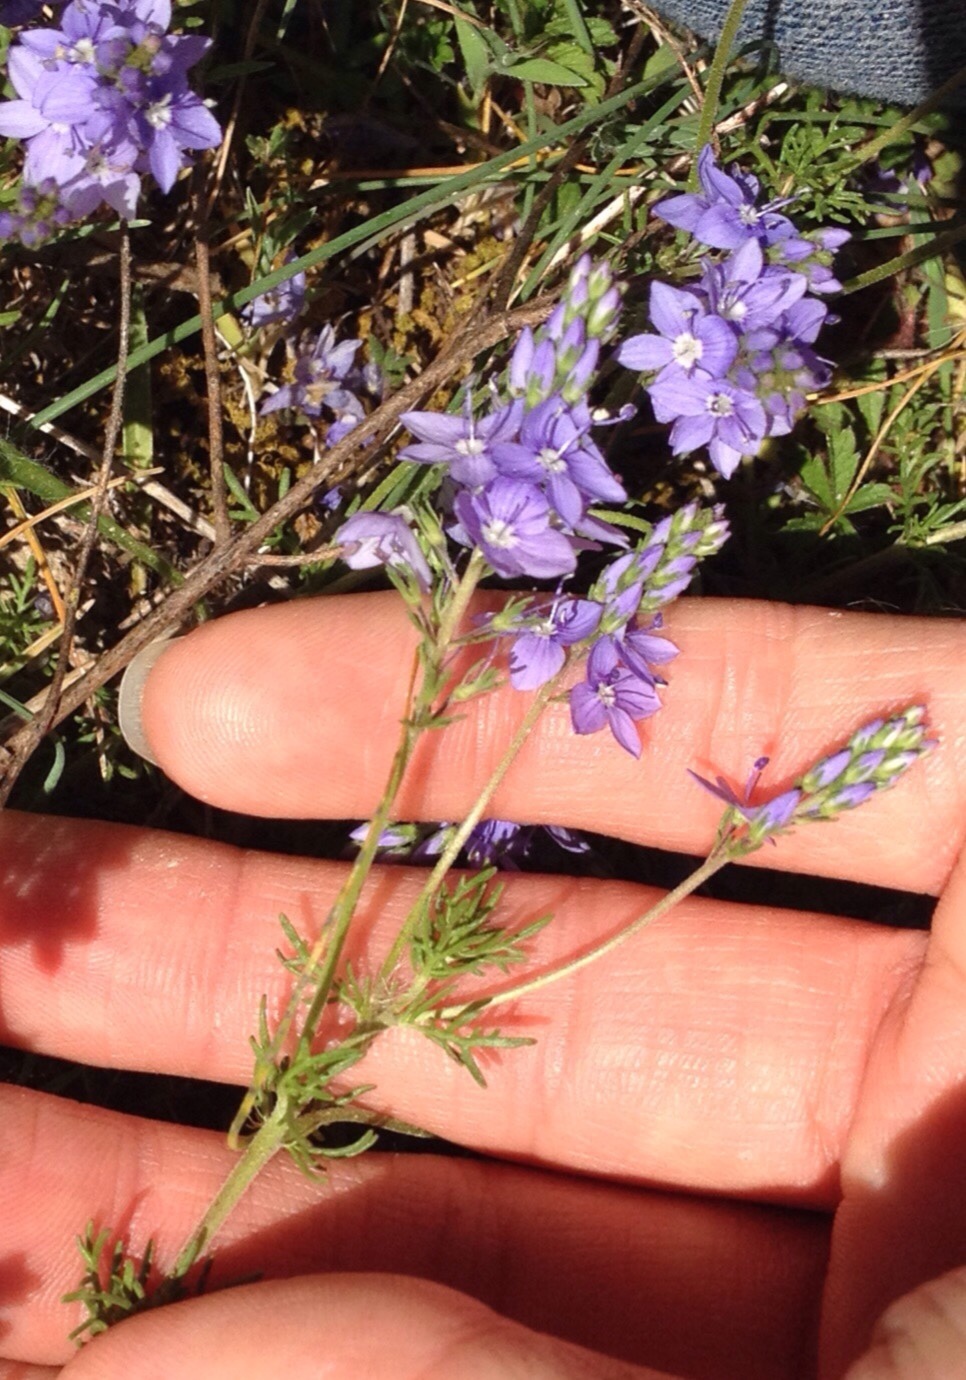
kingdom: Plantae
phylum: Tracheophyta
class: Magnoliopsida
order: Lamiales
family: Plantaginaceae
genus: Veronica
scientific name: Veronica tenuifolia
